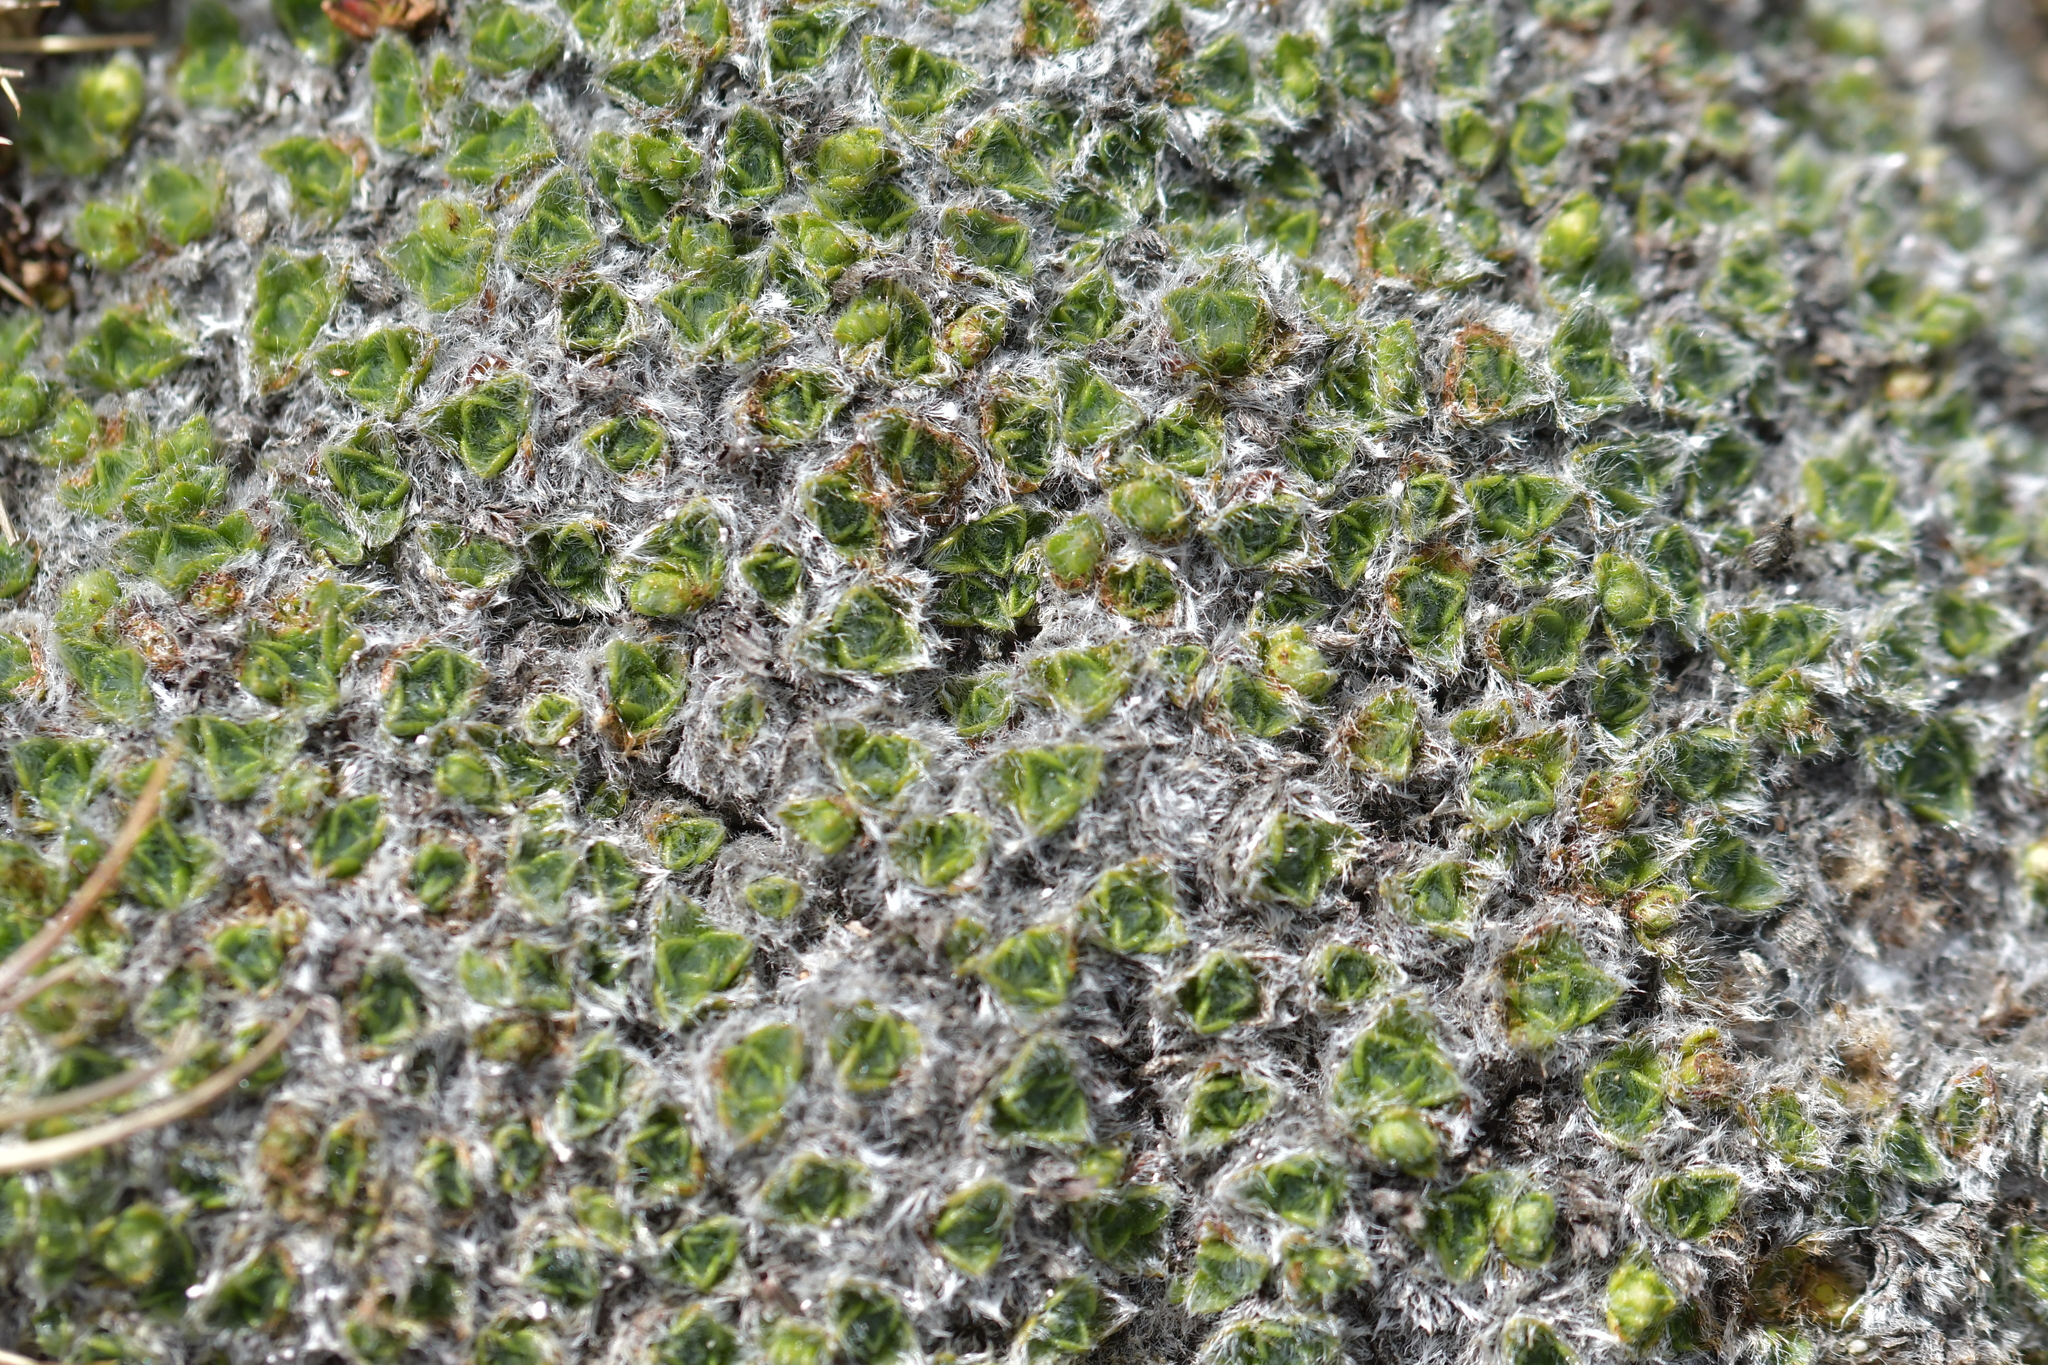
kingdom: Plantae
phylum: Tracheophyta
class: Magnoliopsida
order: Boraginales
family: Boraginaceae
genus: Myosotis
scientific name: Myosotis pulvinaris
